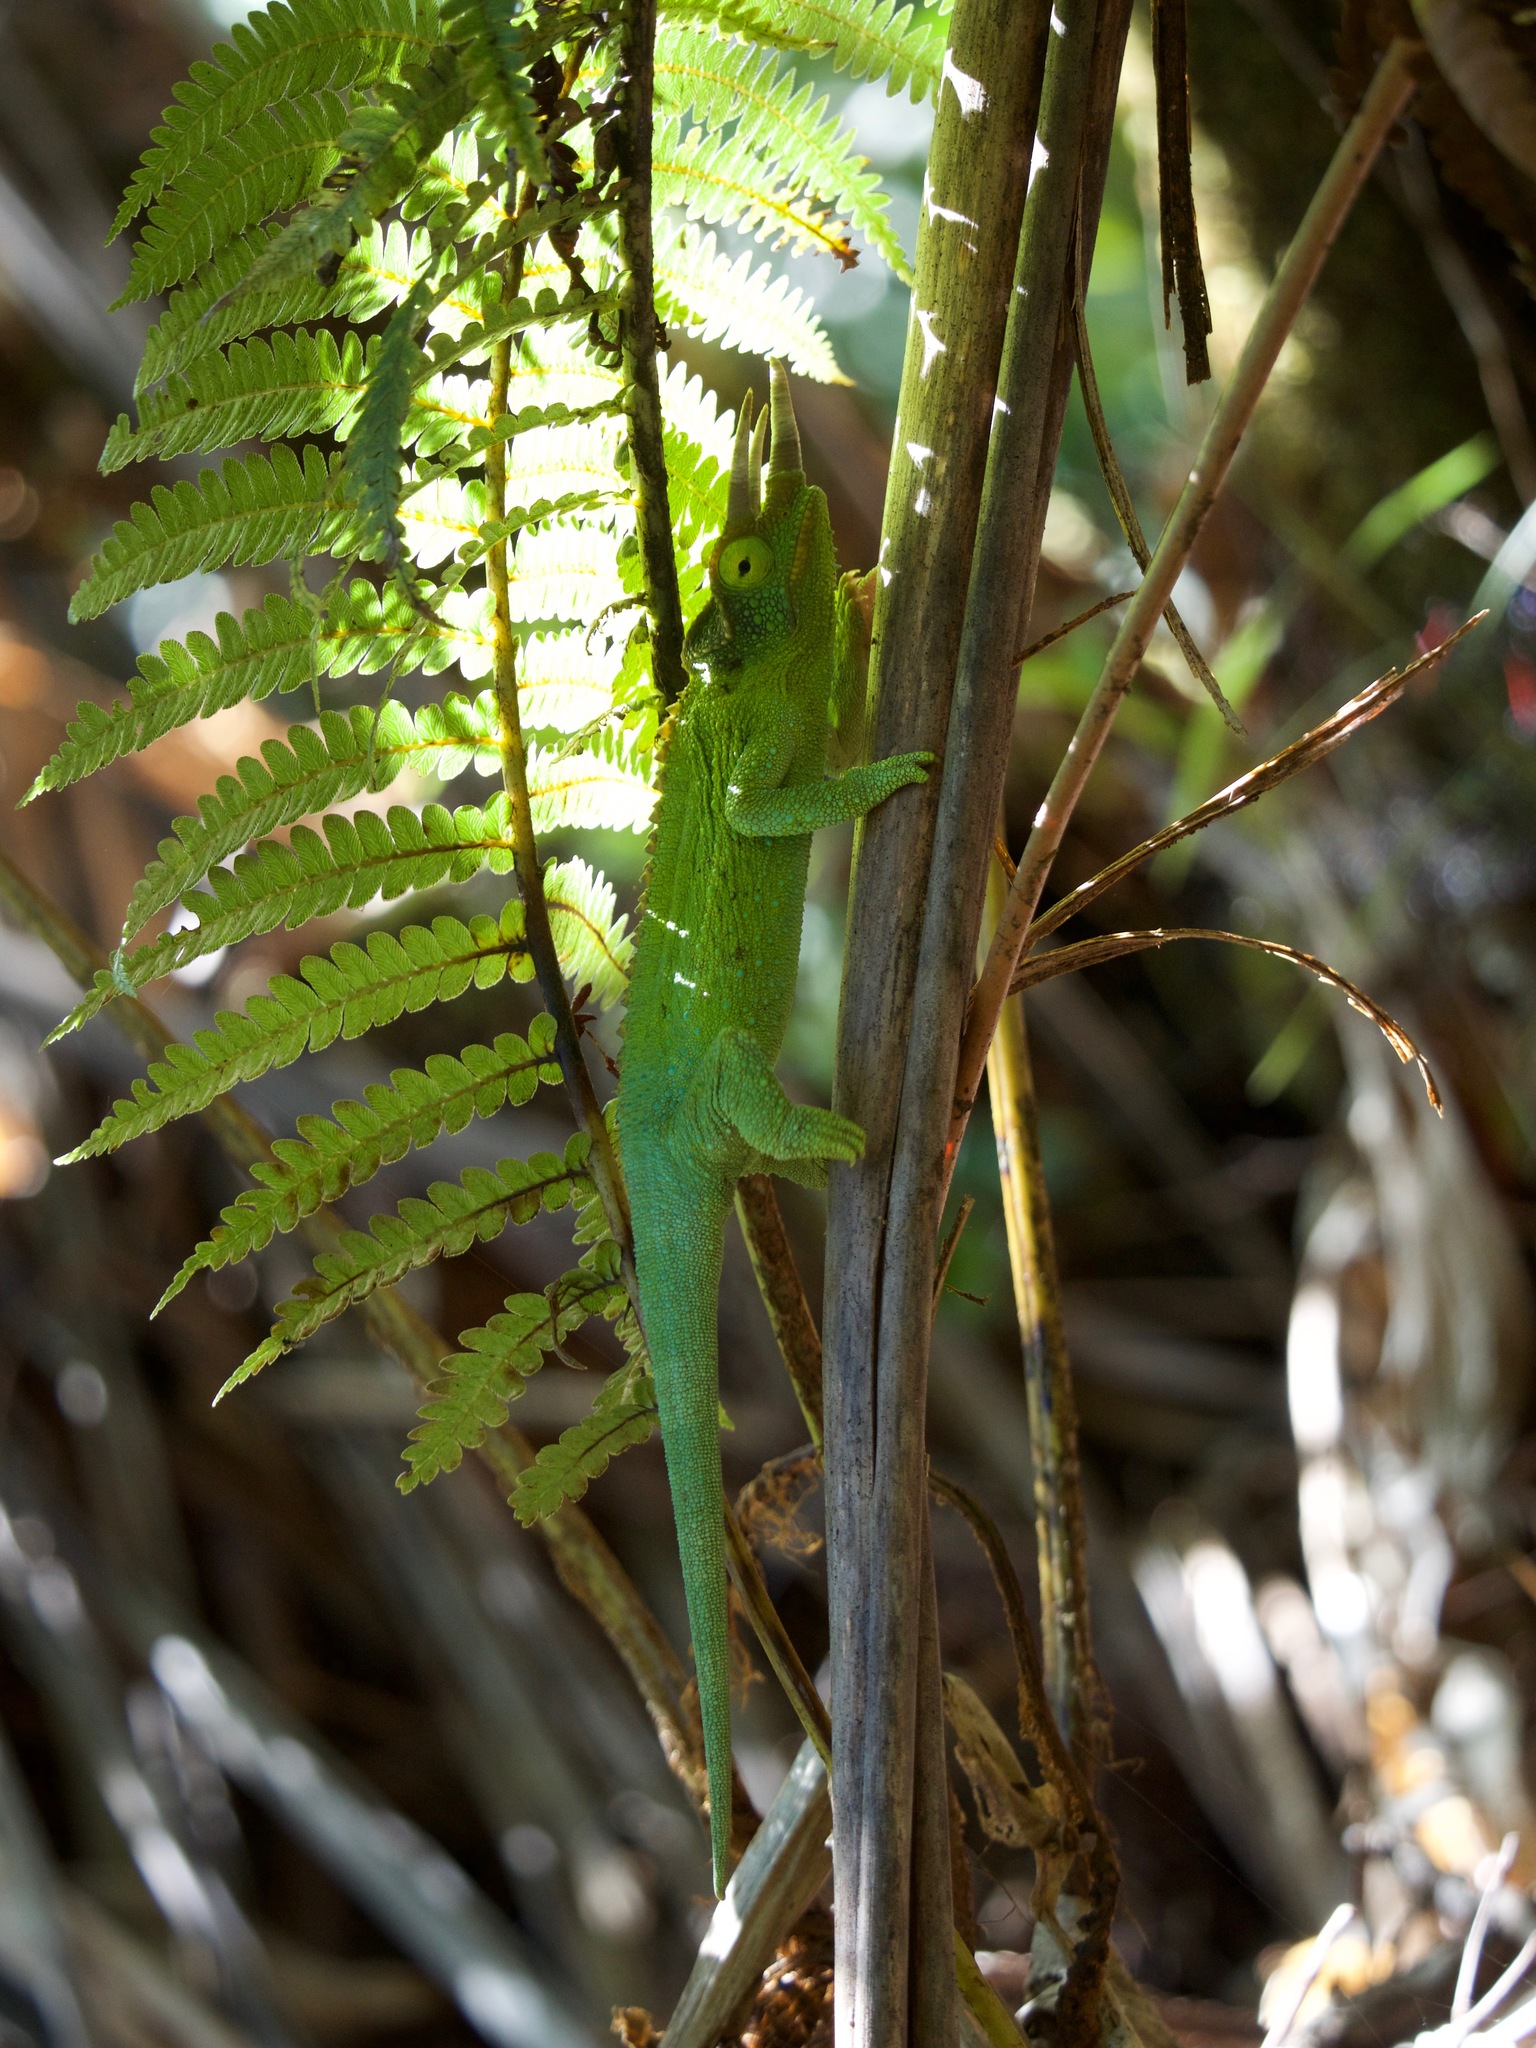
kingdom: Animalia
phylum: Chordata
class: Squamata
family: Chamaeleonidae
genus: Trioceros
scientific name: Trioceros jacksonii
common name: Jackson's chameleon
